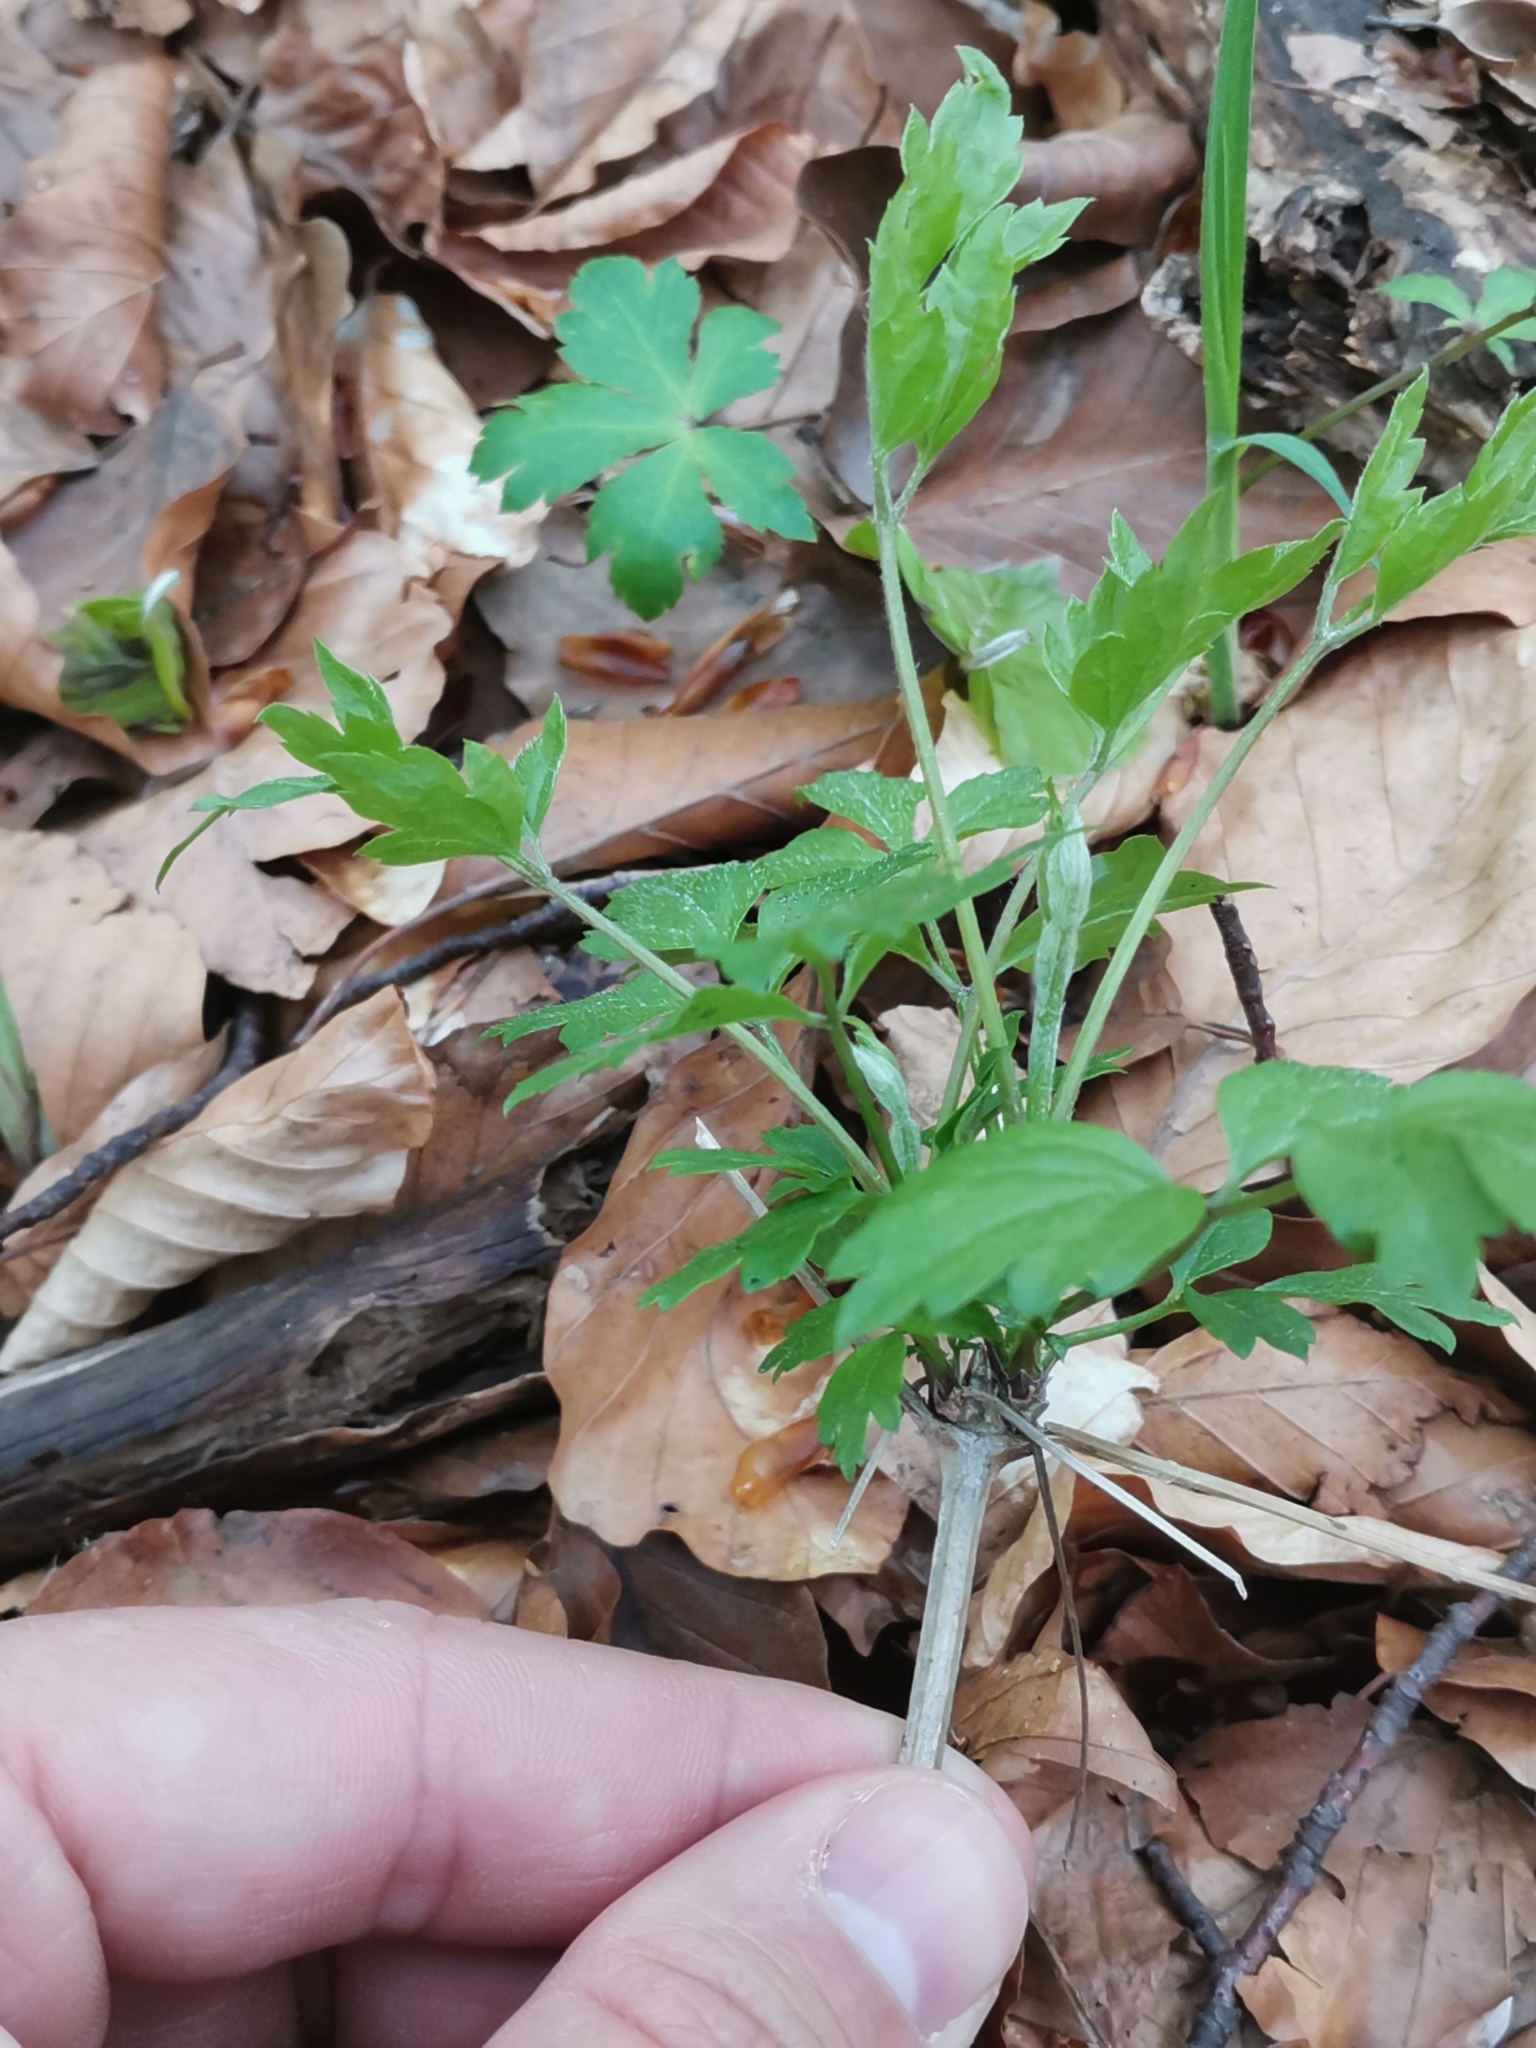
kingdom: Plantae
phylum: Tracheophyta
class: Magnoliopsida
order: Ranunculales
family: Ranunculaceae
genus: Clematis
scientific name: Clematis vitalba
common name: Evergreen clematis
